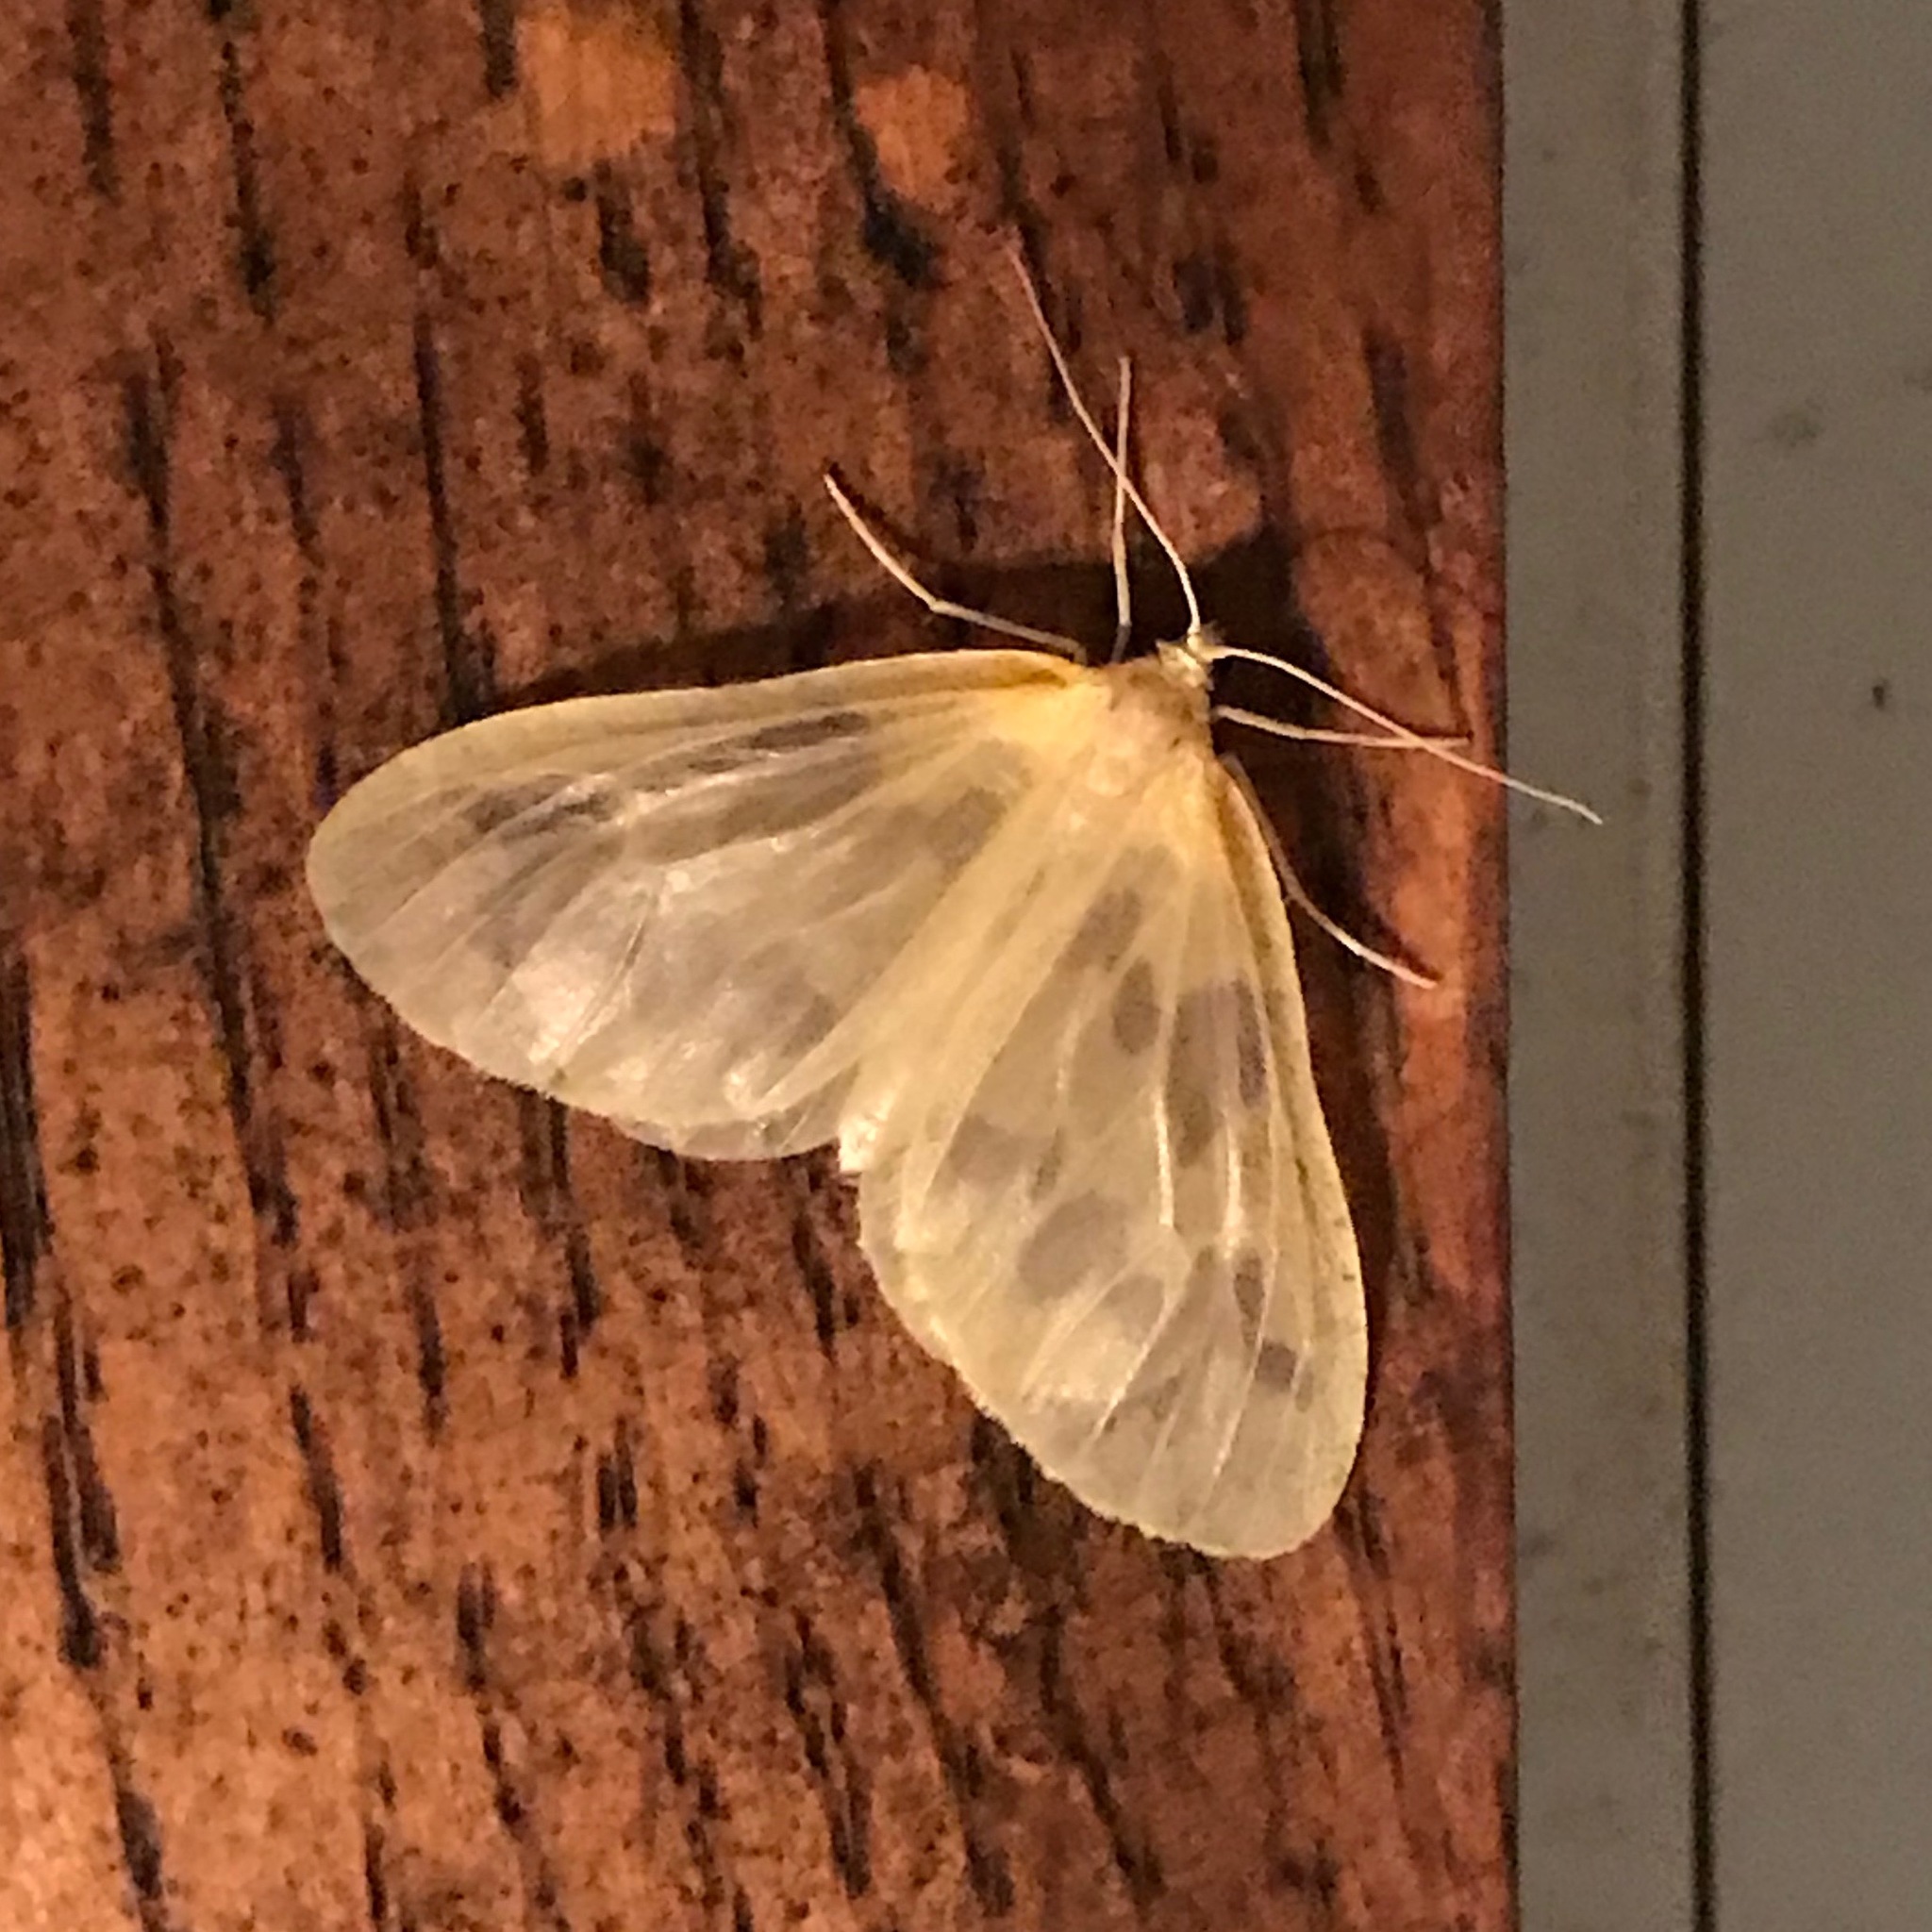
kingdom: Animalia
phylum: Arthropoda
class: Insecta
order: Lepidoptera
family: Geometridae
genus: Eubaphe
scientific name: Eubaphe mendica
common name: Beggar
